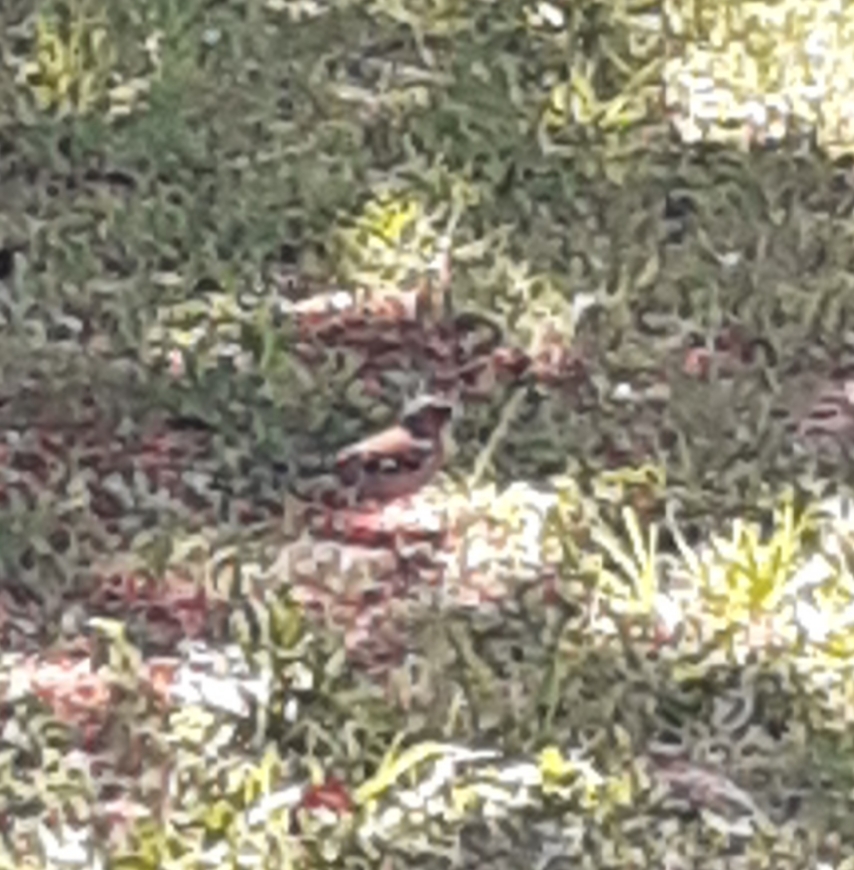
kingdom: Animalia
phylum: Chordata
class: Aves
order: Passeriformes
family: Fringillidae
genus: Fringilla
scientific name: Fringilla coelebs
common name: Common chaffinch
